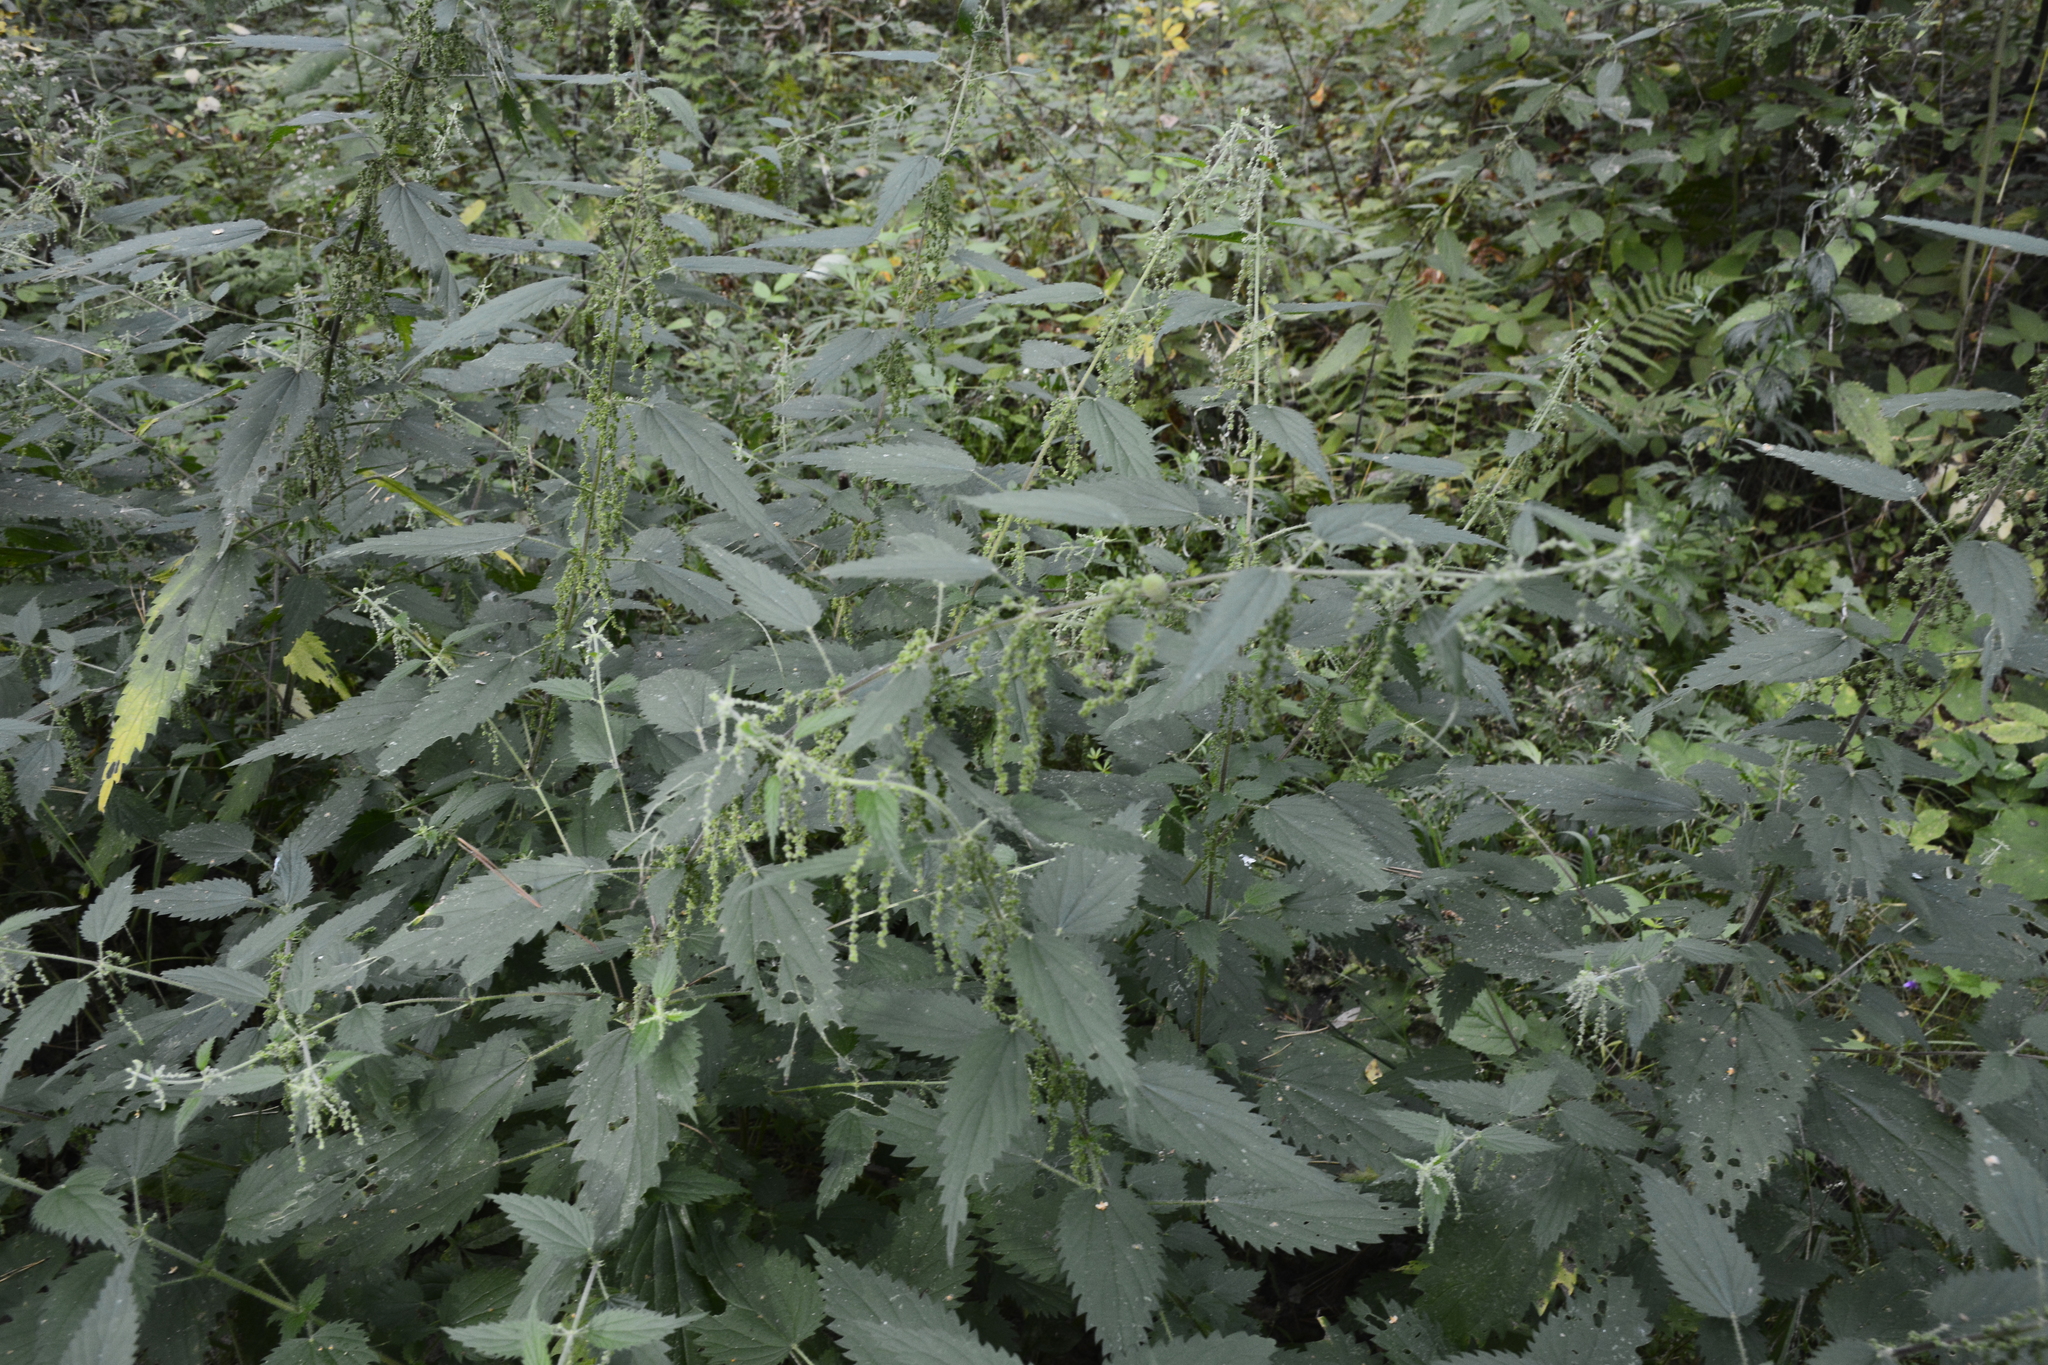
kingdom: Plantae
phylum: Tracheophyta
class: Magnoliopsida
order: Rosales
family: Urticaceae
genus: Urtica
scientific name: Urtica dioica
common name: Common nettle
